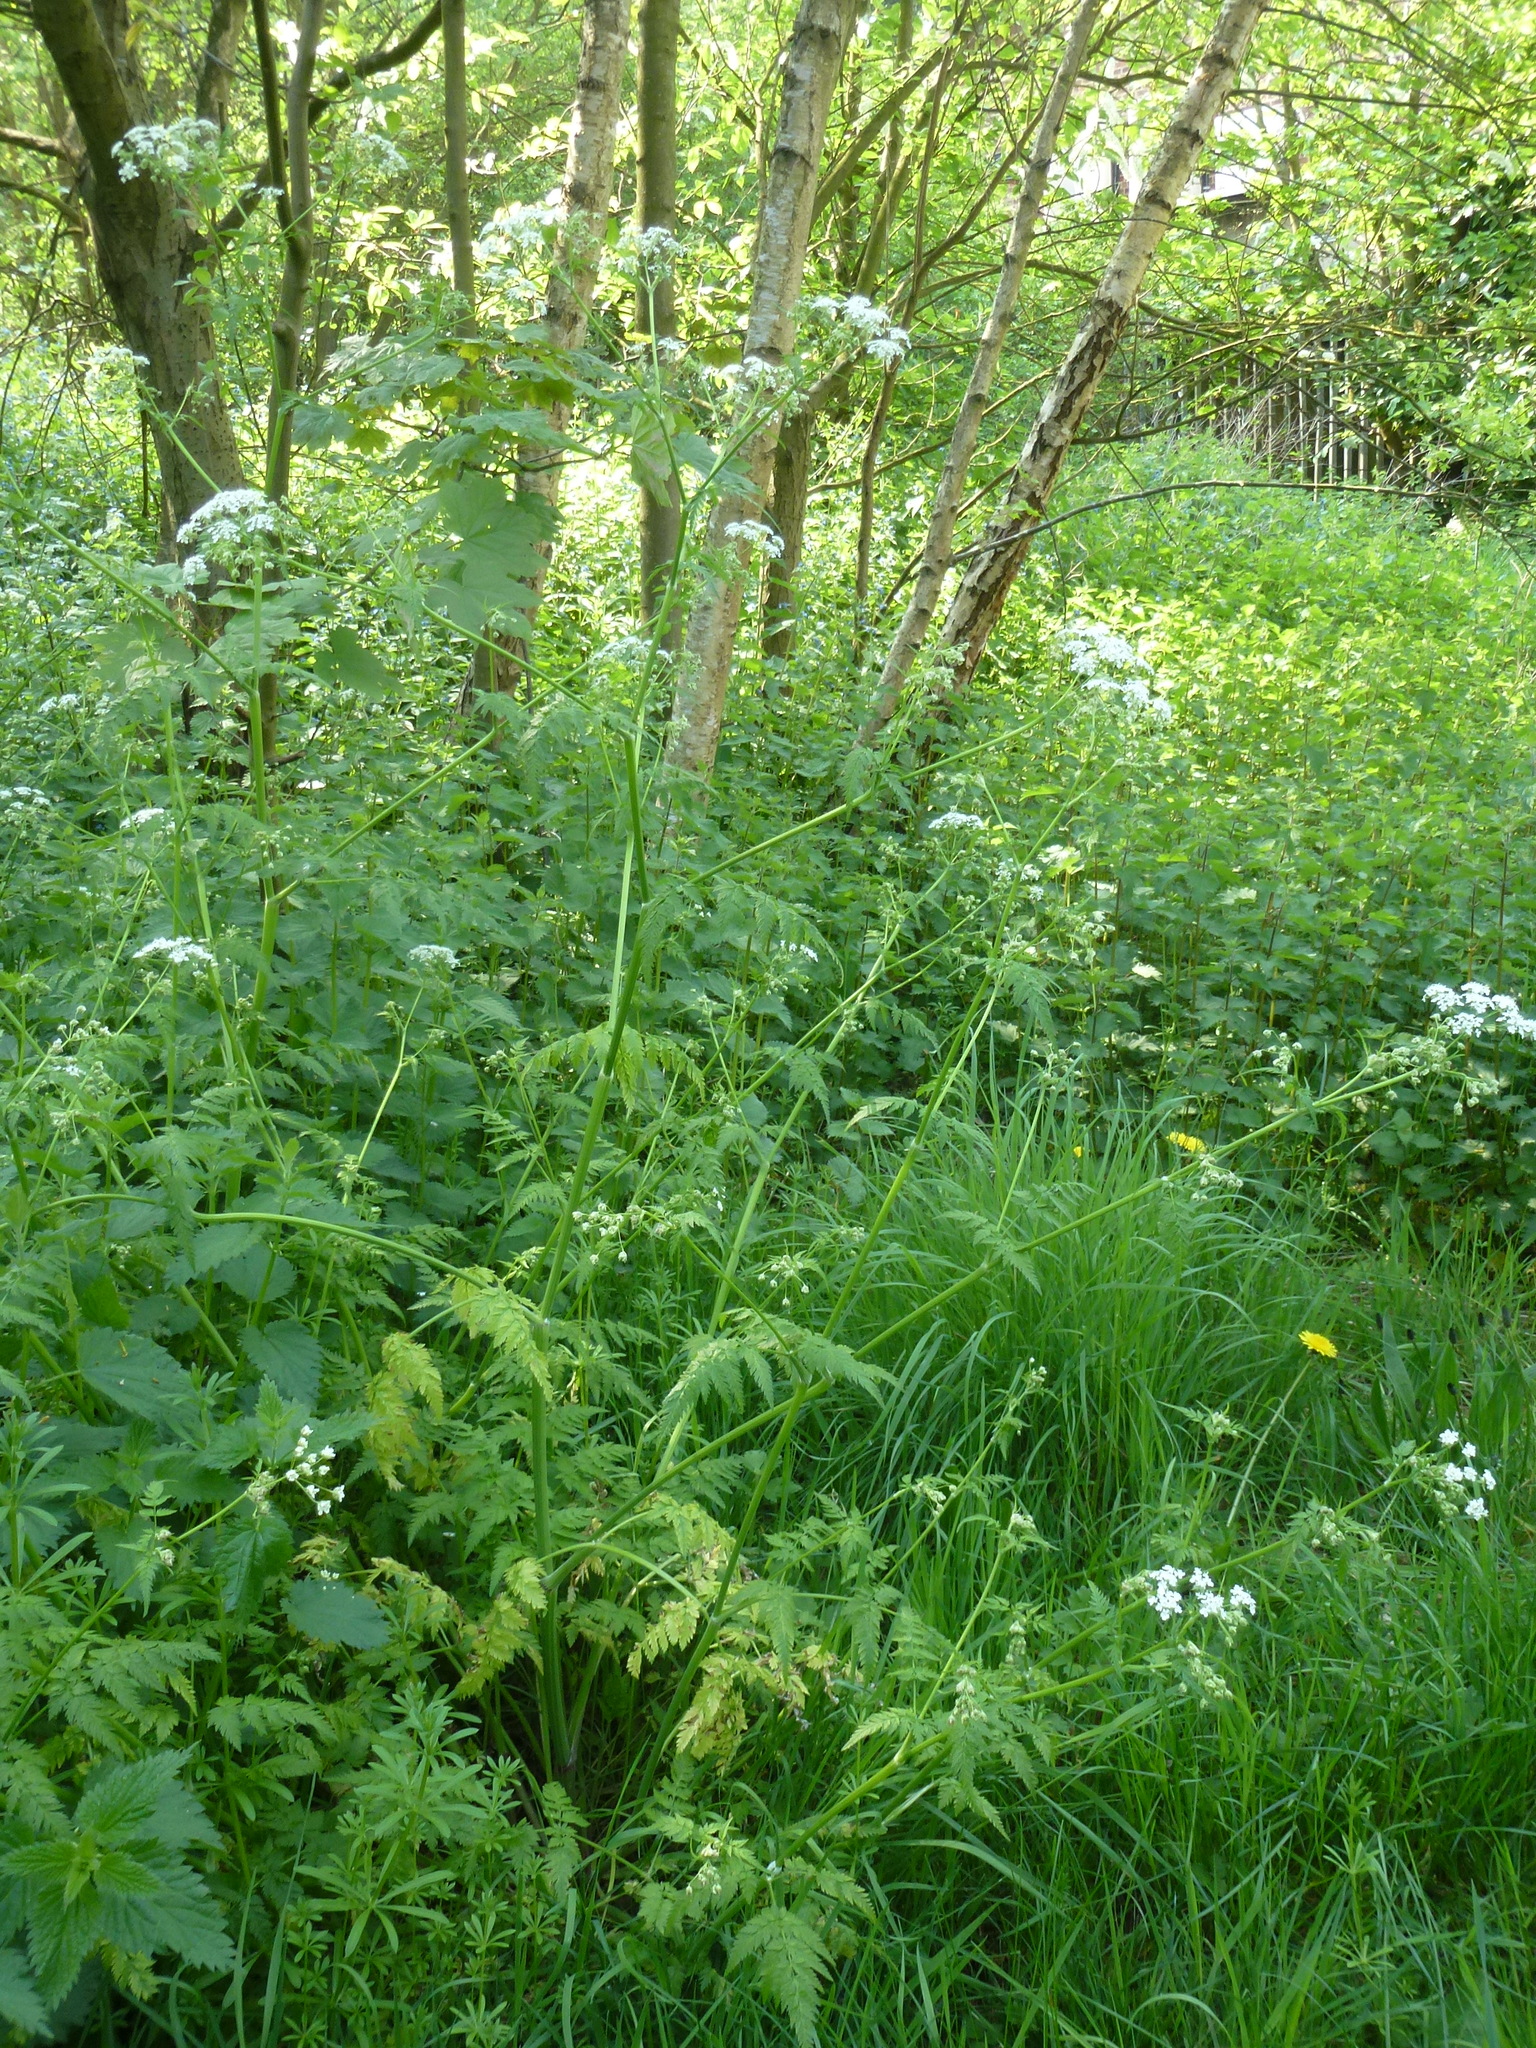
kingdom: Plantae
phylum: Tracheophyta
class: Magnoliopsida
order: Apiales
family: Apiaceae
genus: Anthriscus
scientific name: Anthriscus sylvestris
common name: Cow parsley
